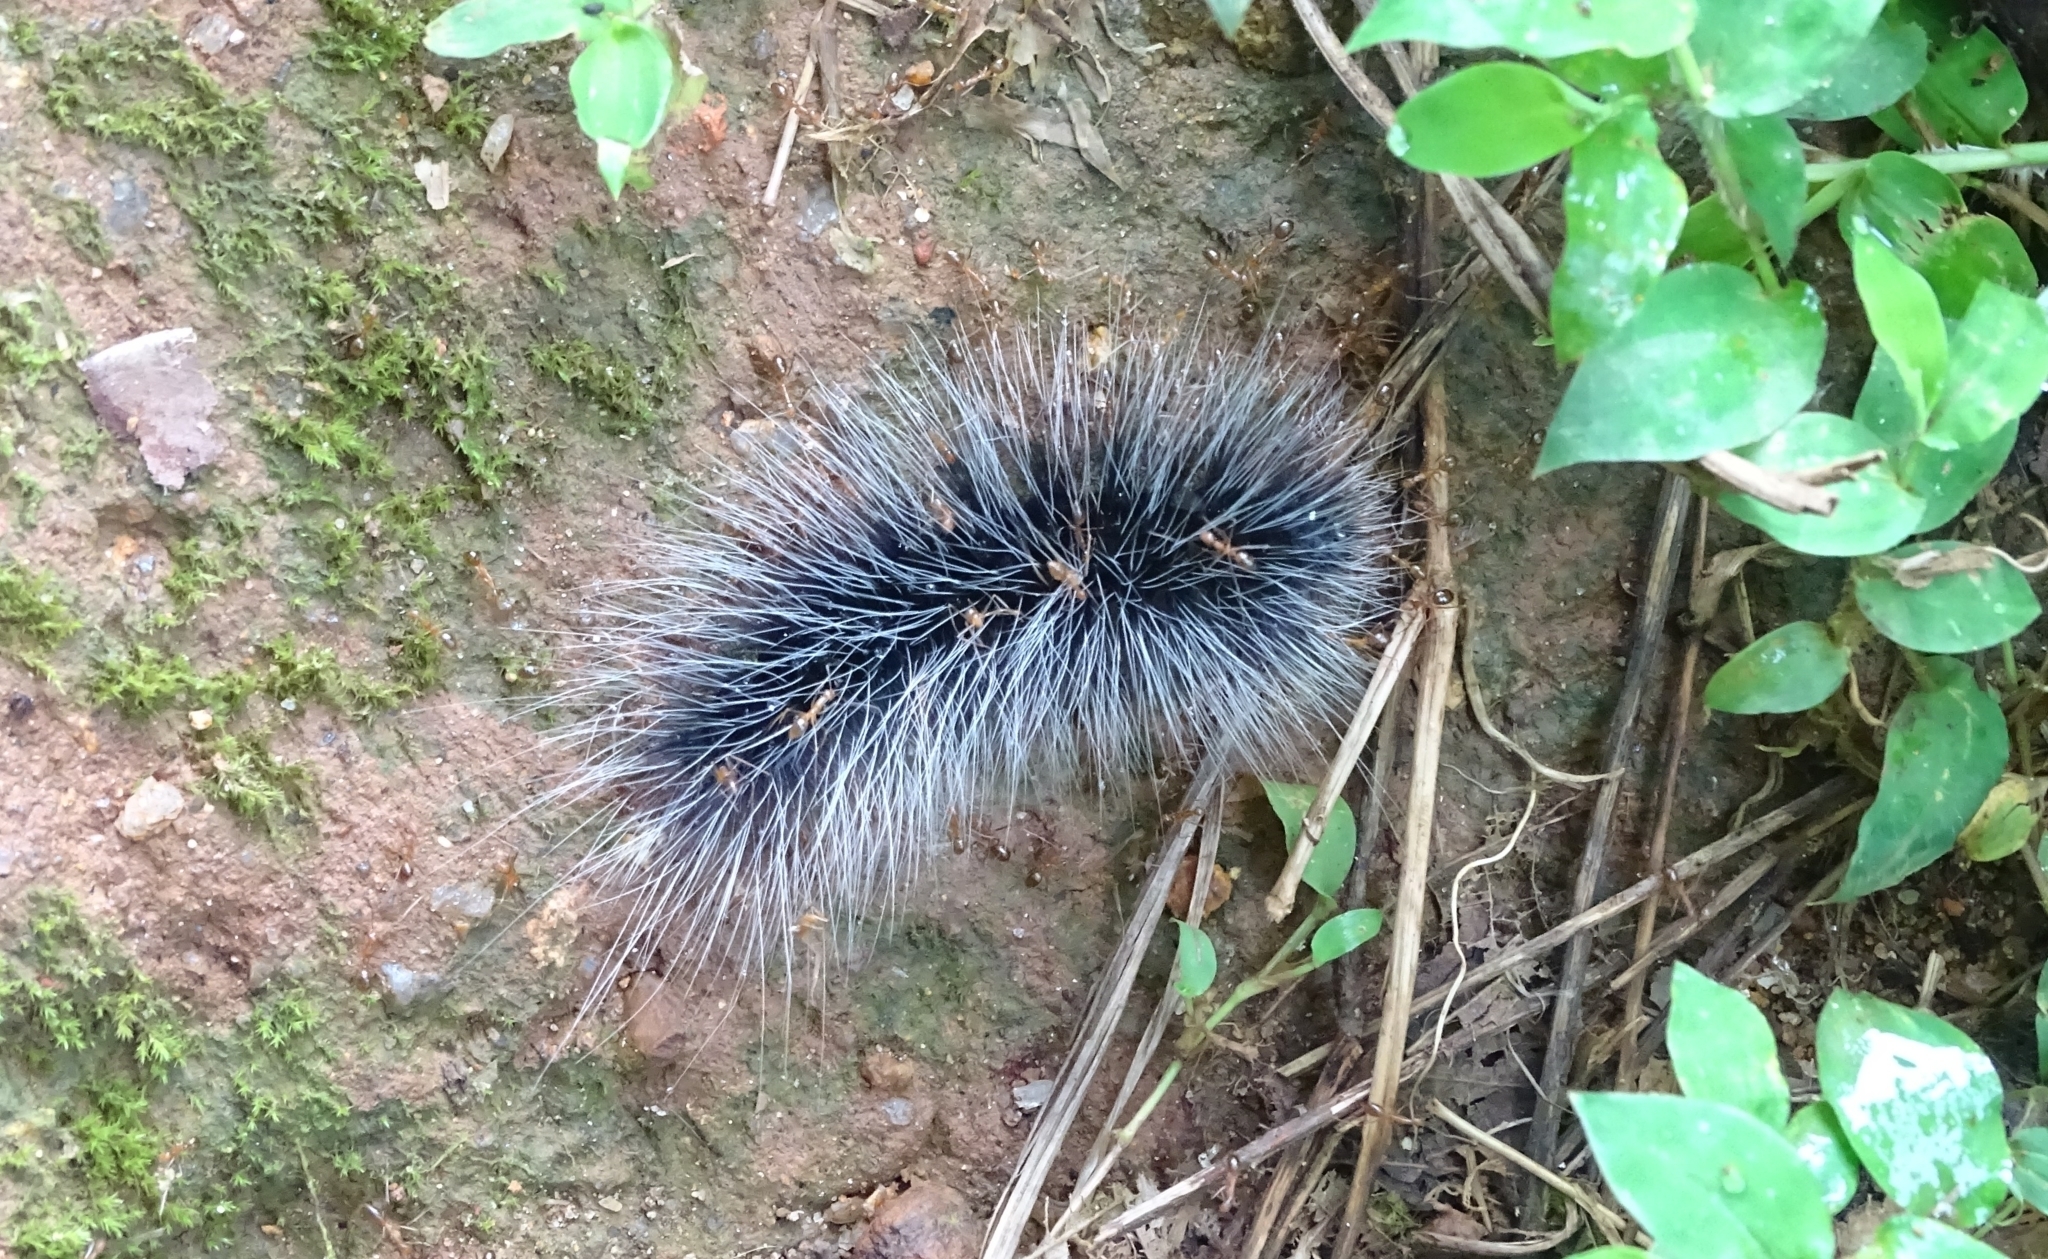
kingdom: Animalia
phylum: Arthropoda
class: Insecta
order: Lepidoptera
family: Erebidae
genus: Macrobrochis
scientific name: Macrobrochis gigas
